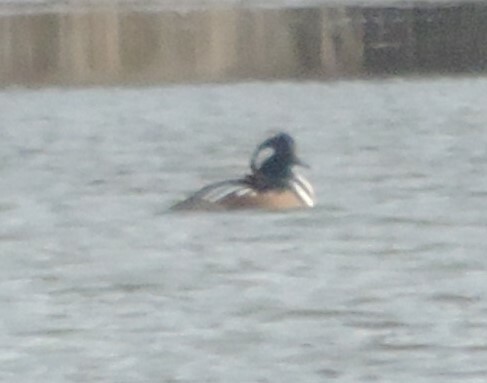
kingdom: Animalia
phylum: Chordata
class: Aves
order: Anseriformes
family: Anatidae
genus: Lophodytes
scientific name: Lophodytes cucullatus
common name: Hooded merganser
